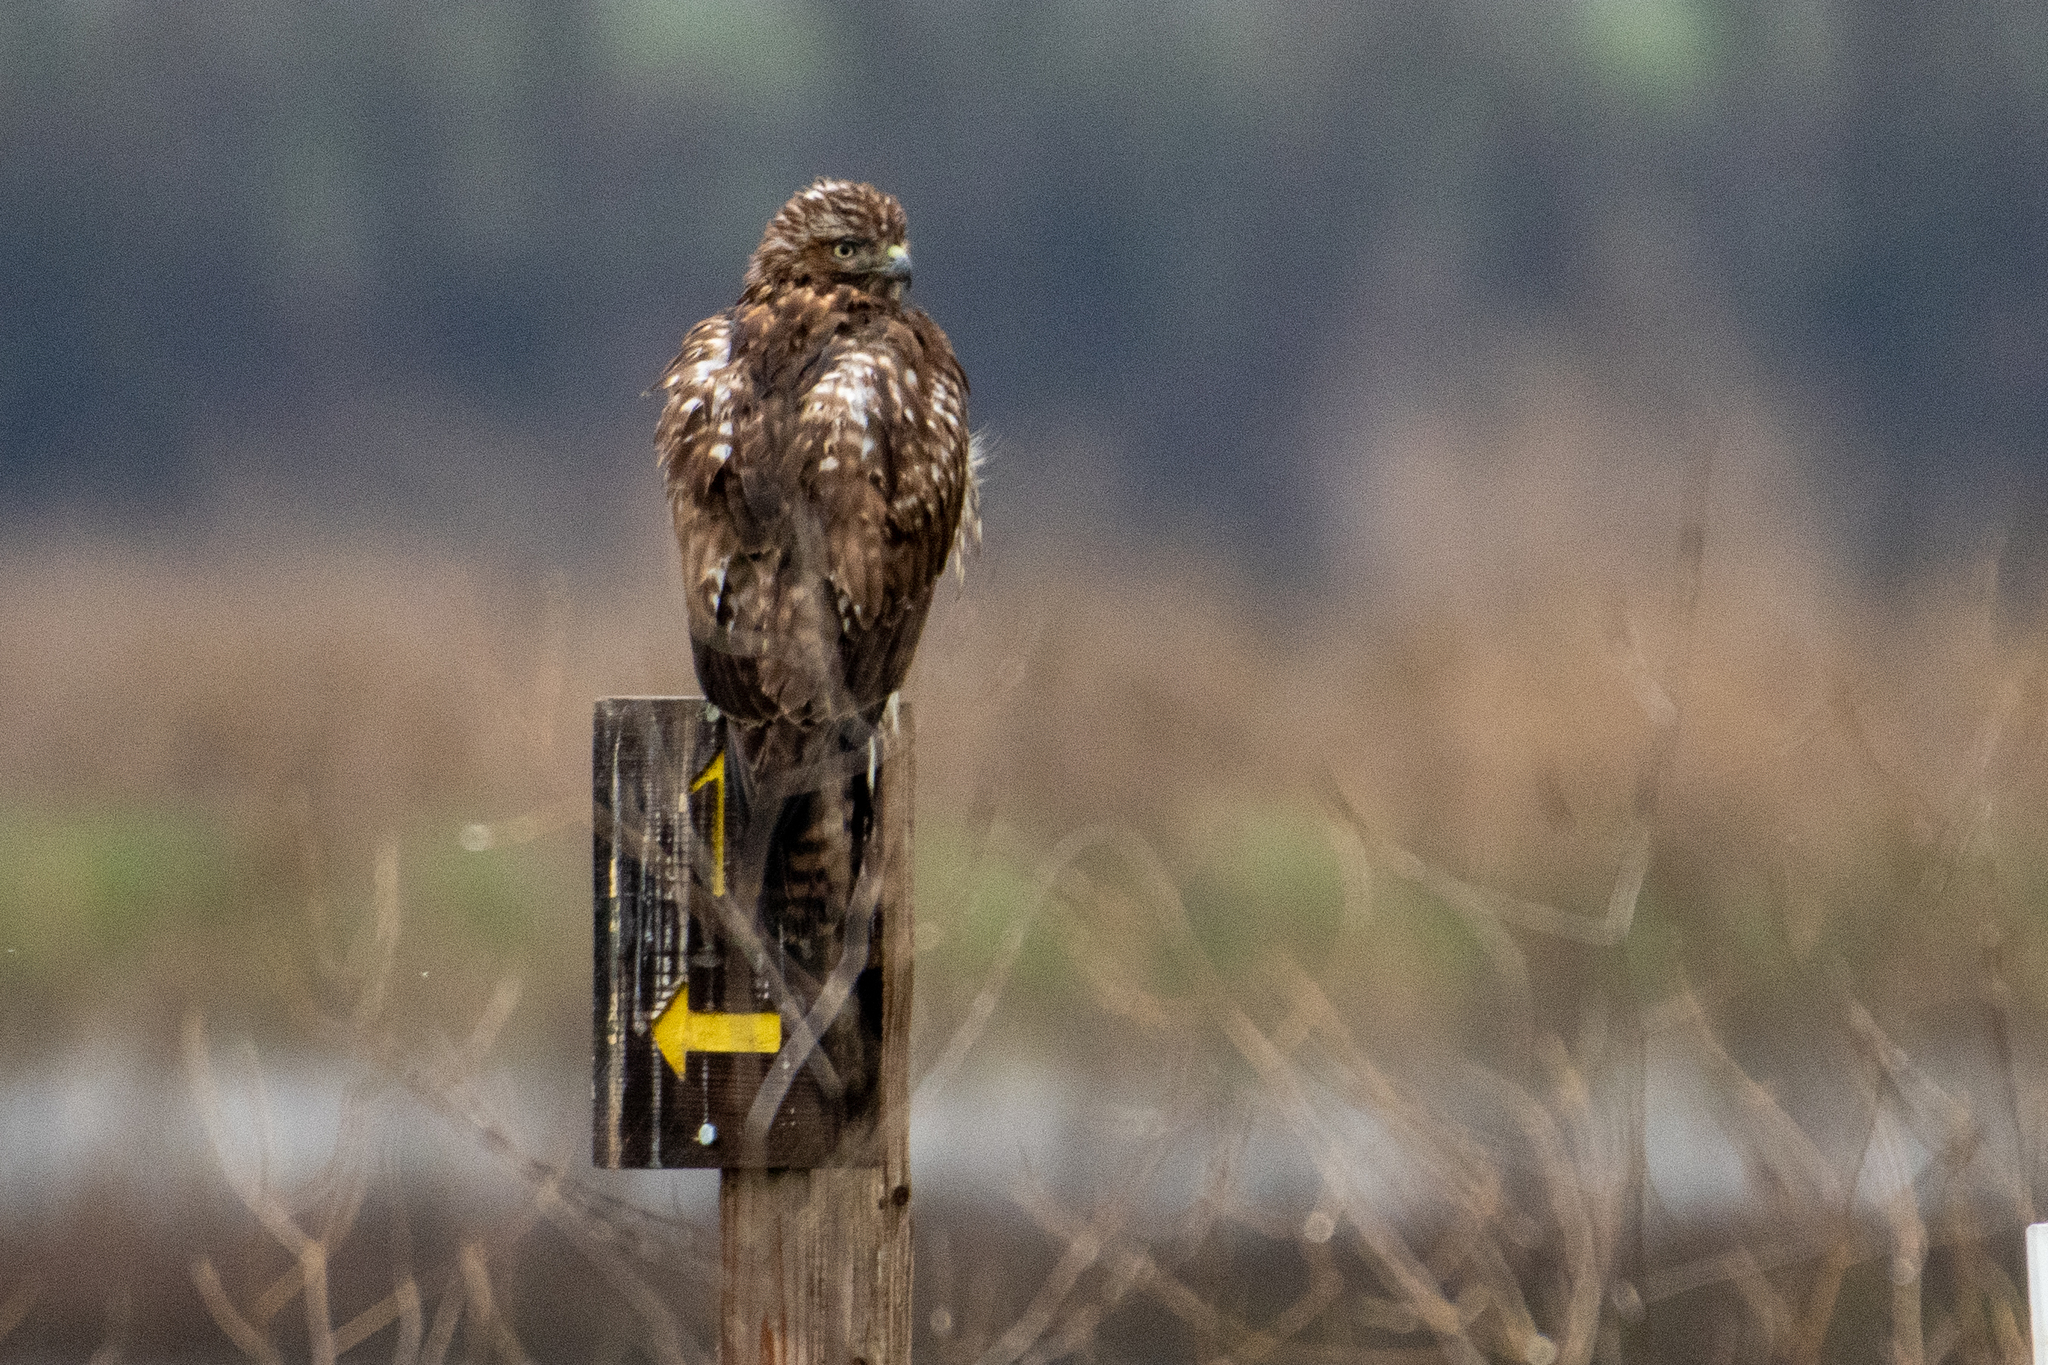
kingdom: Animalia
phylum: Chordata
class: Aves
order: Accipitriformes
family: Accipitridae
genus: Buteo
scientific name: Buteo jamaicensis
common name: Red-tailed hawk
